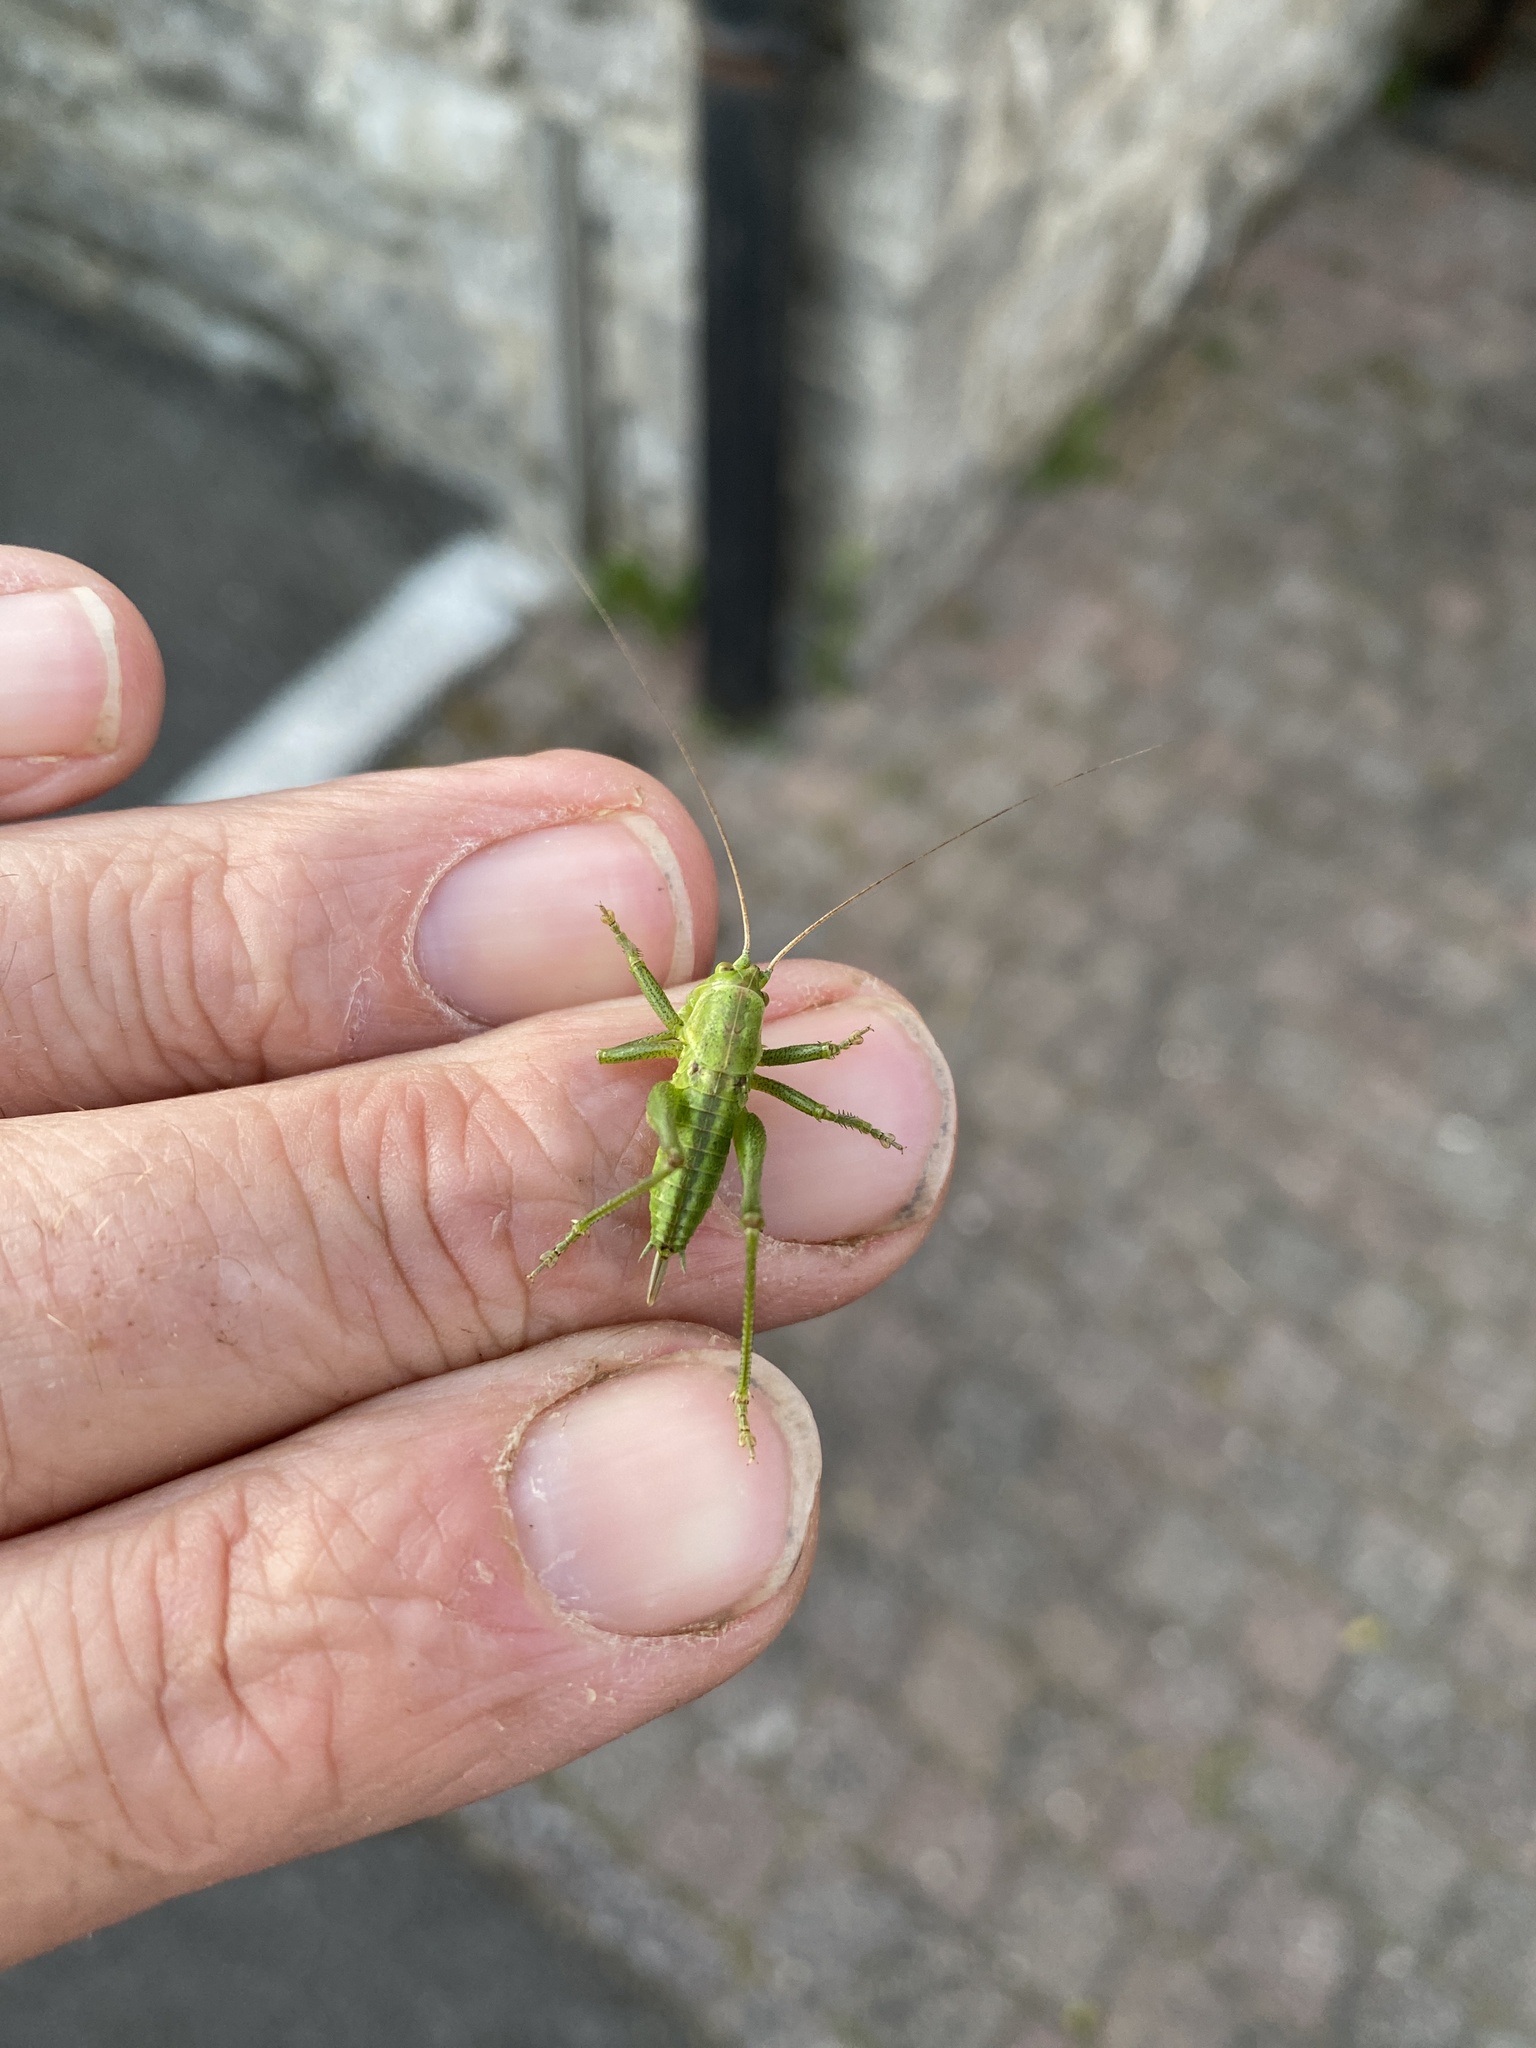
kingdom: Animalia
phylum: Arthropoda
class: Insecta
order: Orthoptera
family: Tettigoniidae
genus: Tettigonia
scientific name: Tettigonia viridissima
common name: Great green bush-cricket
